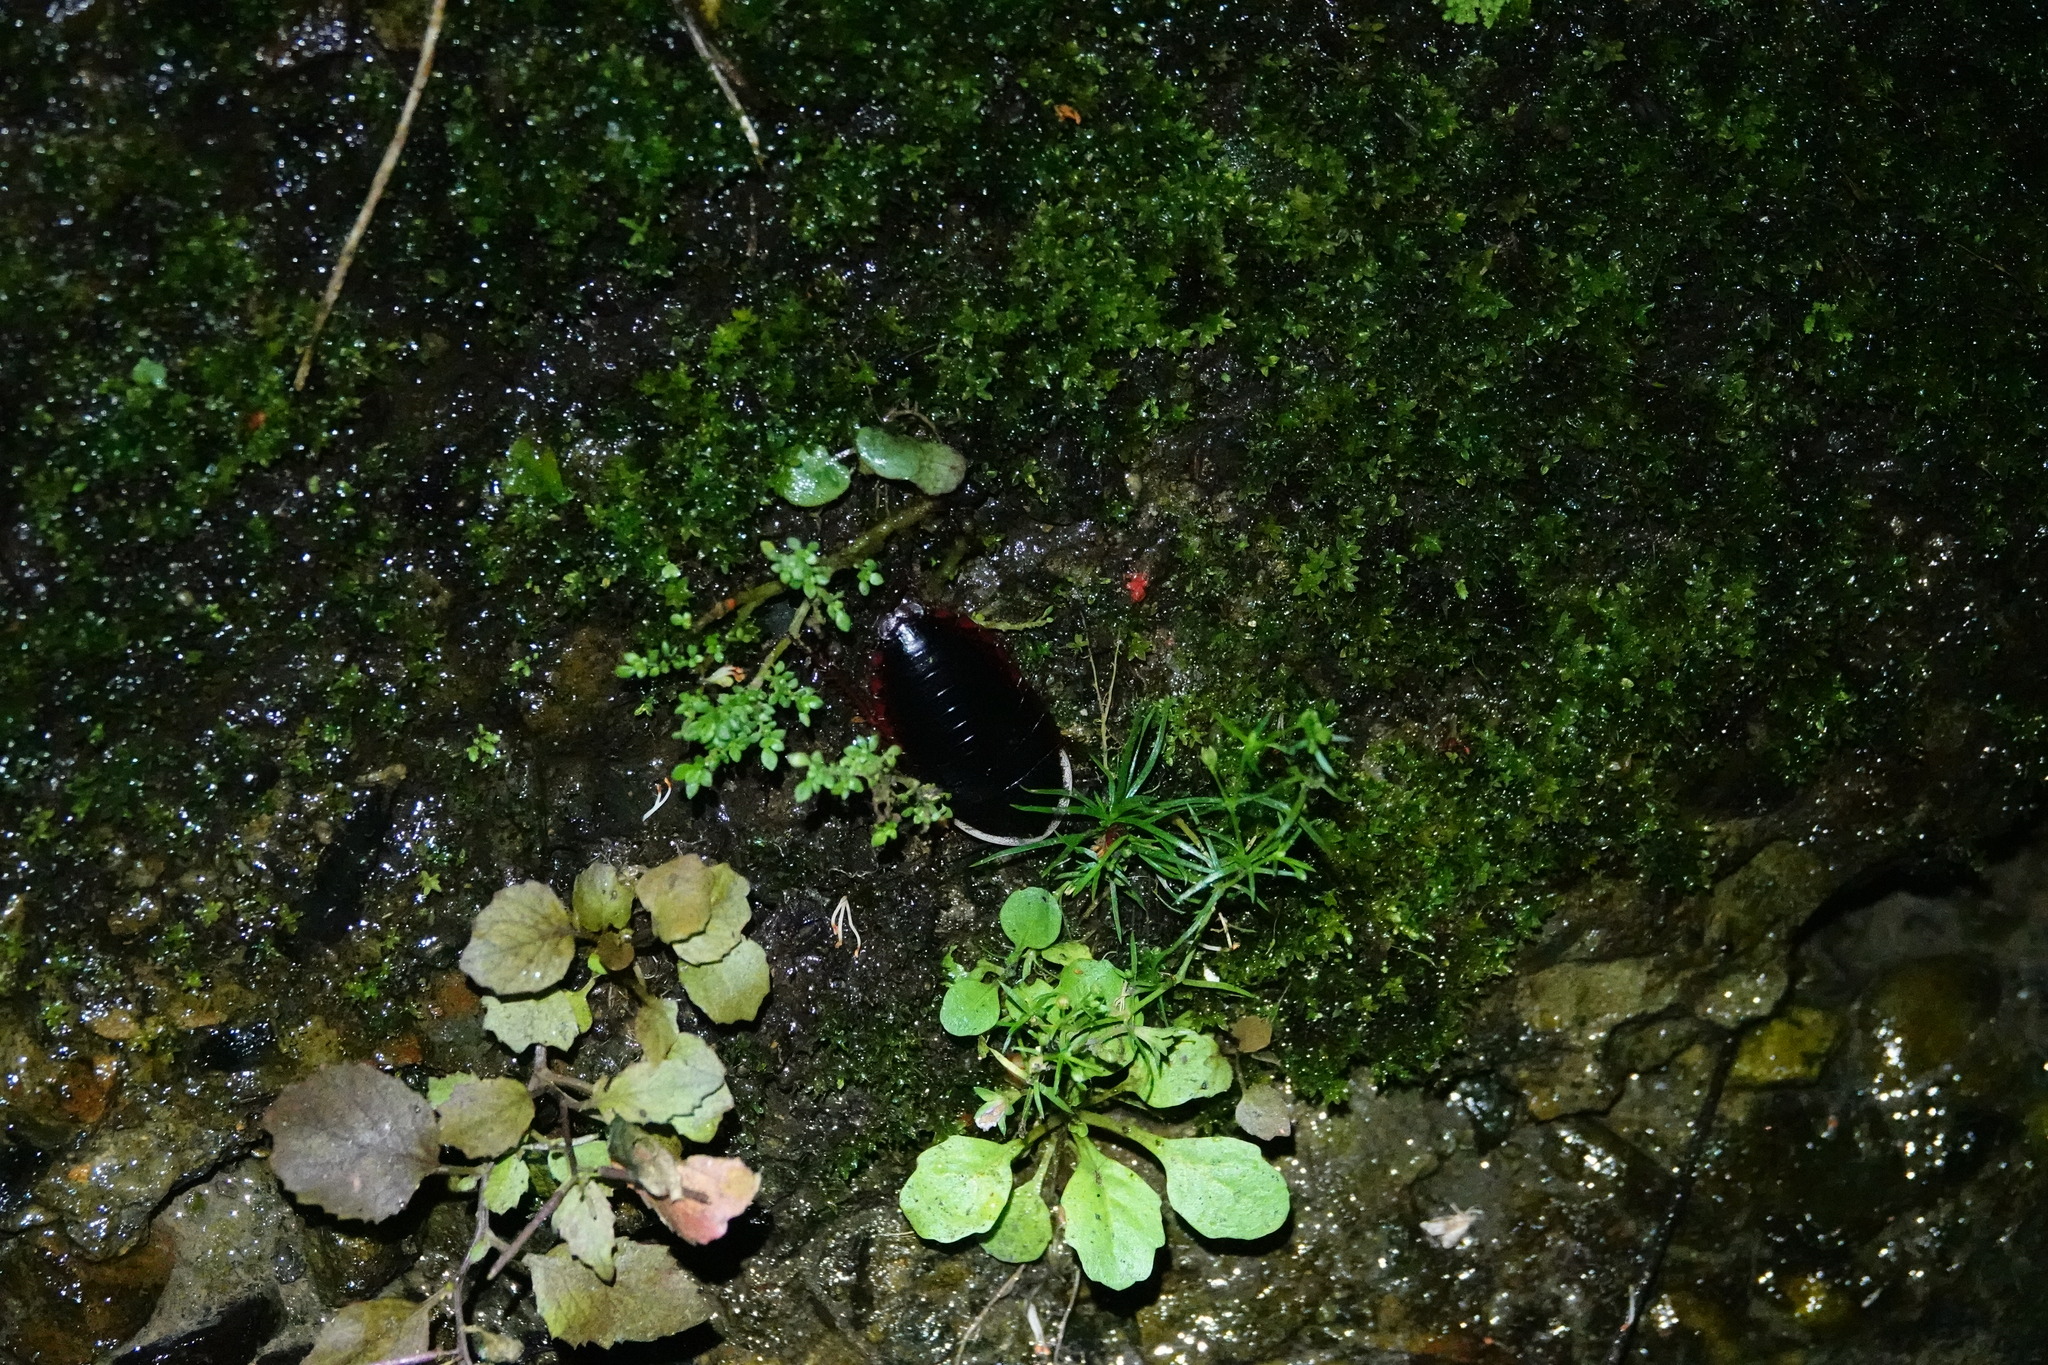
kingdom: Animalia
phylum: Arthropoda
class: Insecta
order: Blattodea
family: Blaberidae
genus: Opisthoplatia
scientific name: Opisthoplatia orientalis
